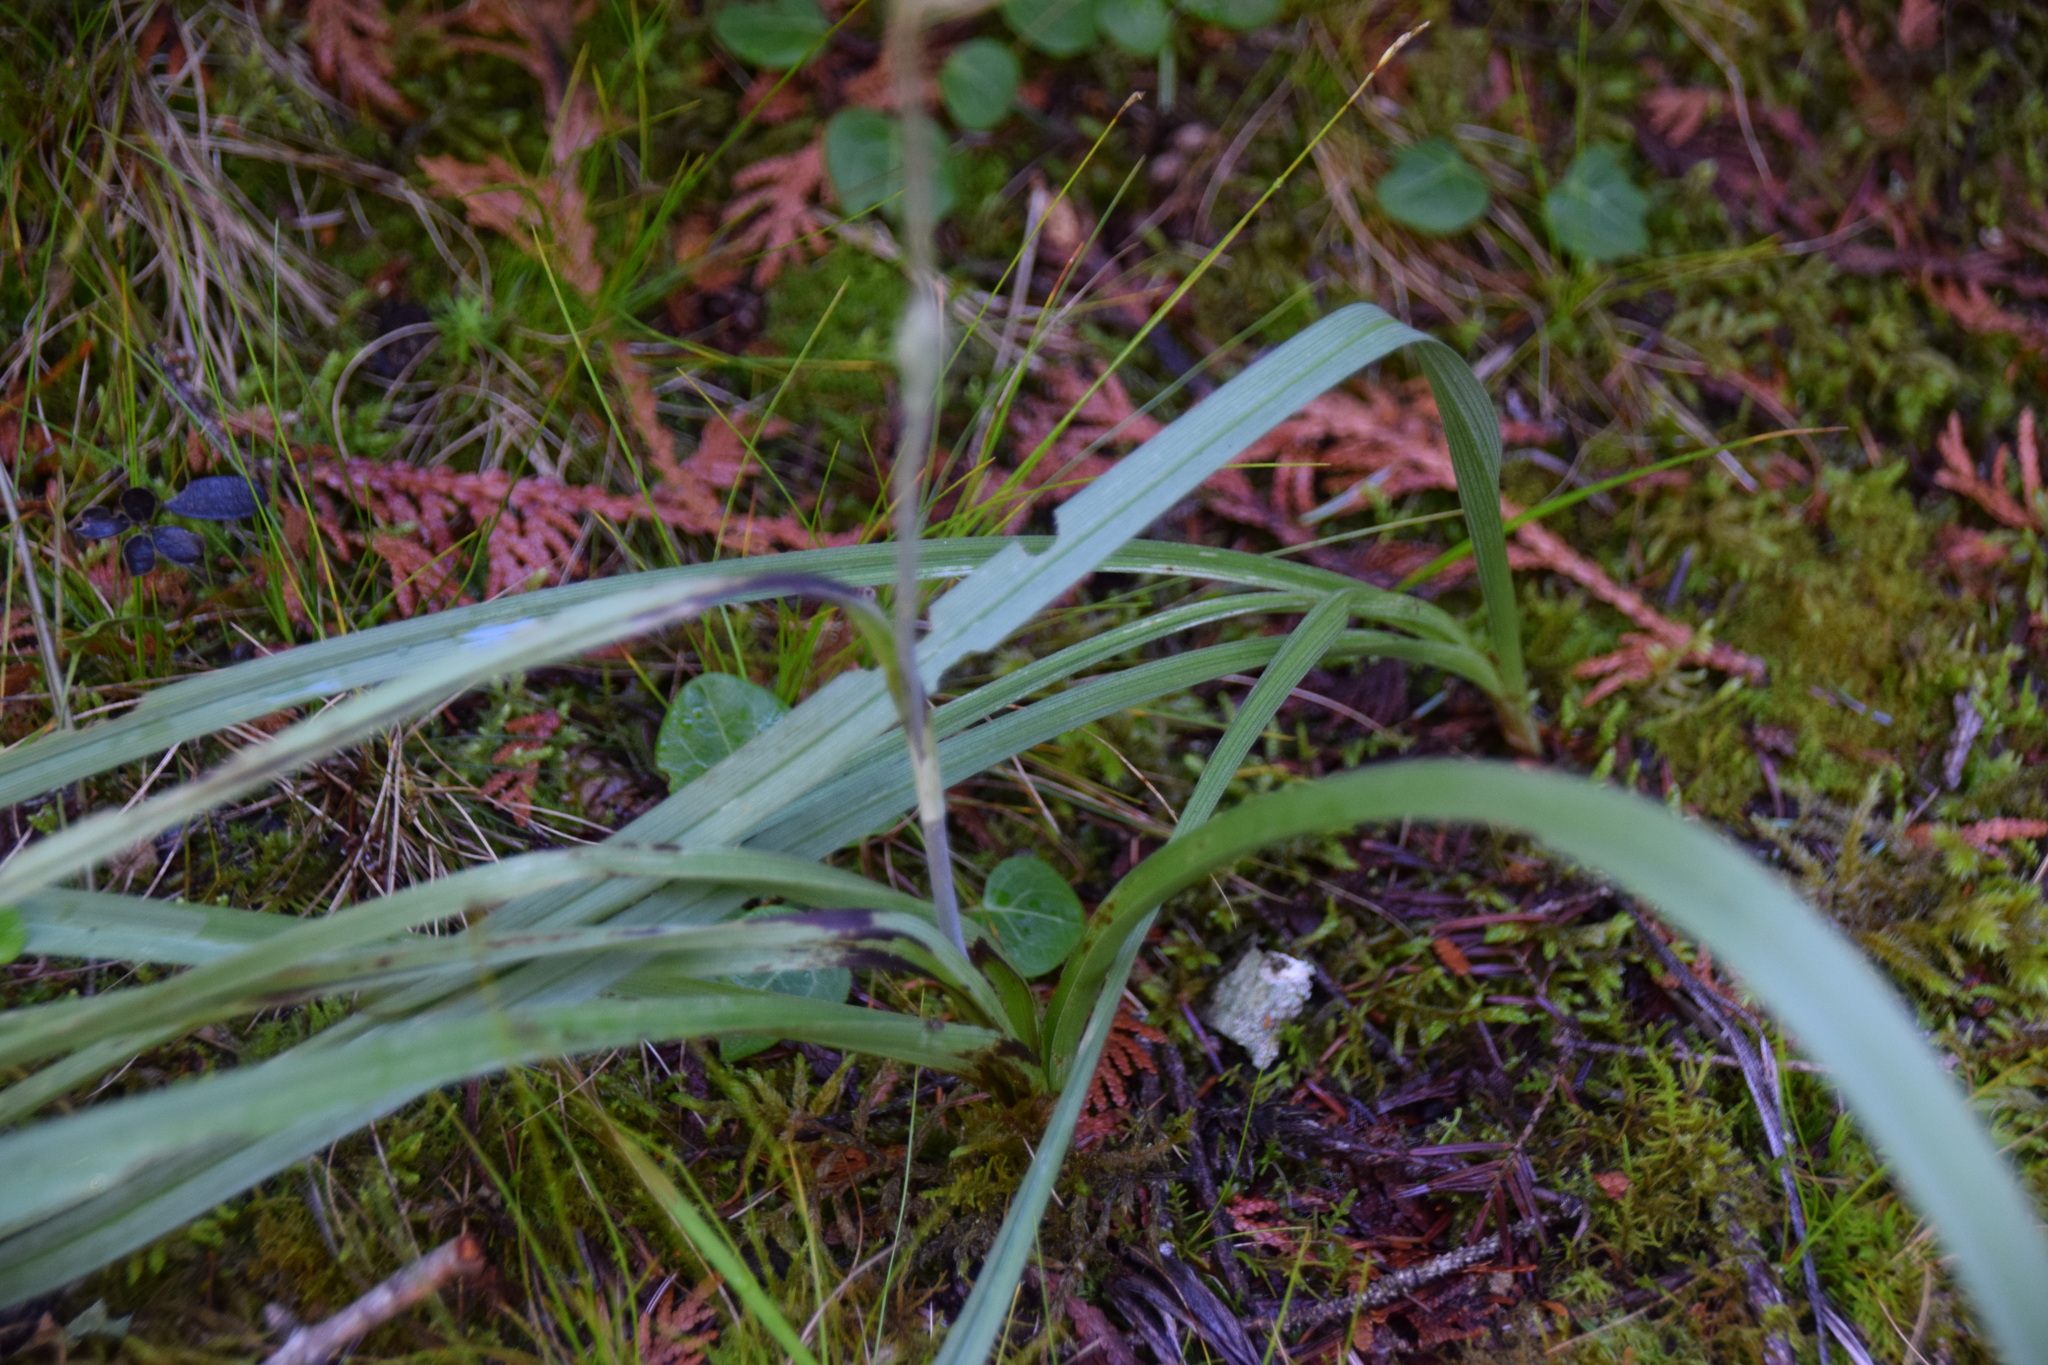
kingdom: Plantae
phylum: Tracheophyta
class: Liliopsida
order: Liliales
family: Melanthiaceae
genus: Anticlea
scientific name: Anticlea elegans
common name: Mountain death camas
